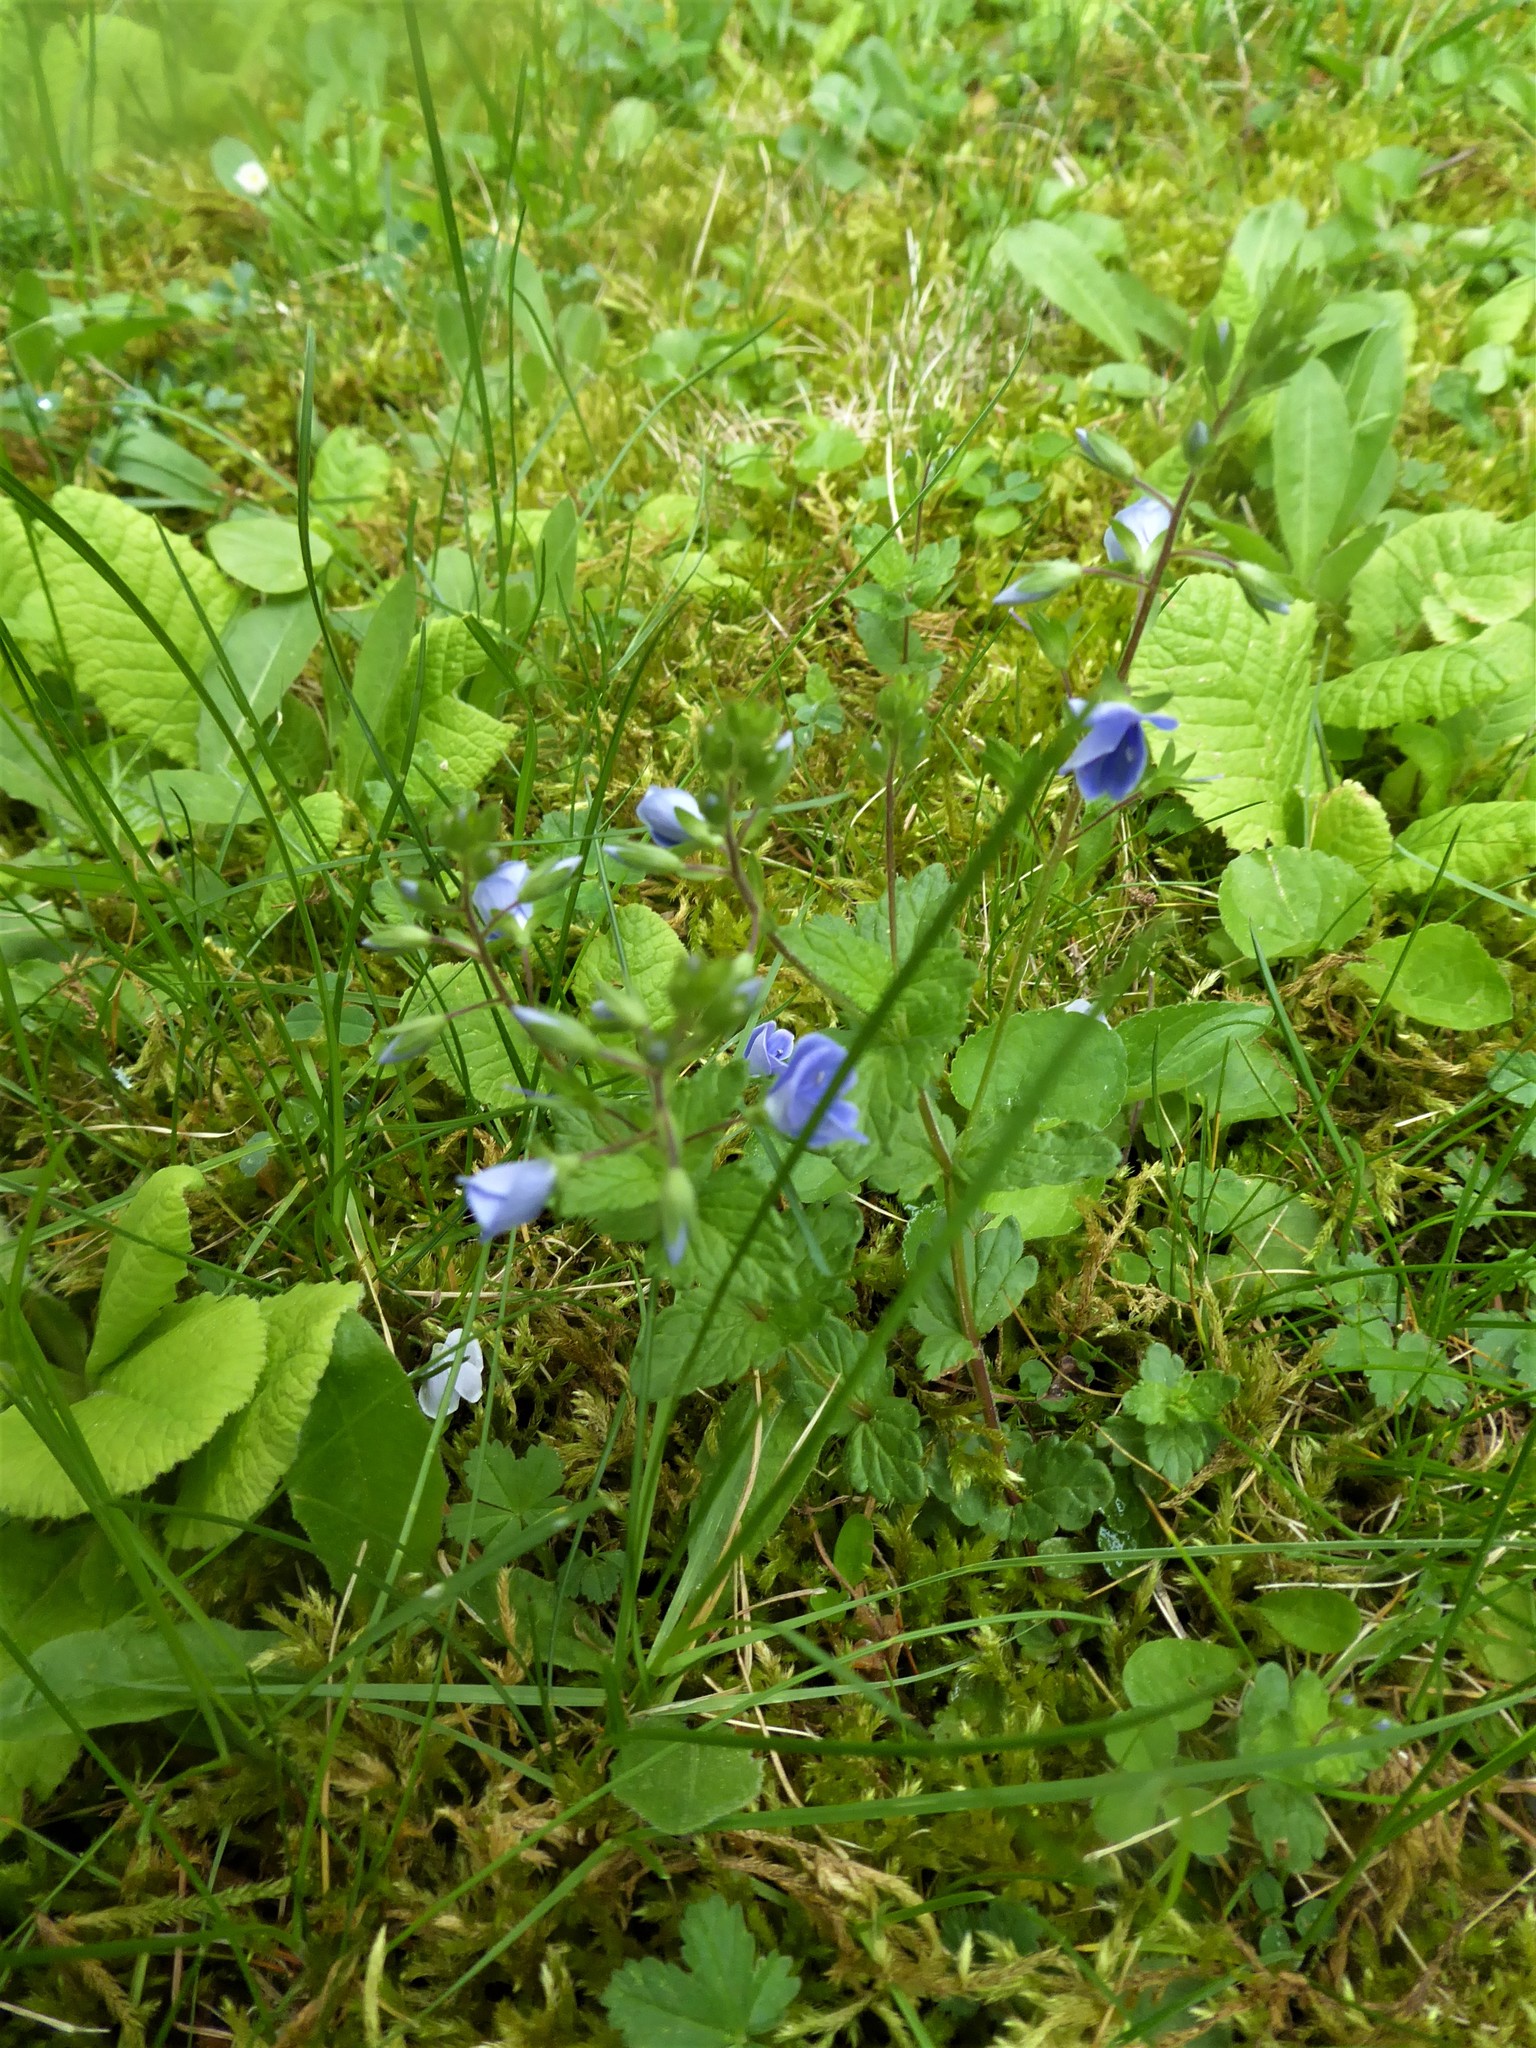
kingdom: Plantae
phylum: Tracheophyta
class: Magnoliopsida
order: Lamiales
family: Plantaginaceae
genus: Veronica
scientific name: Veronica chamaedrys
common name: Germander speedwell
